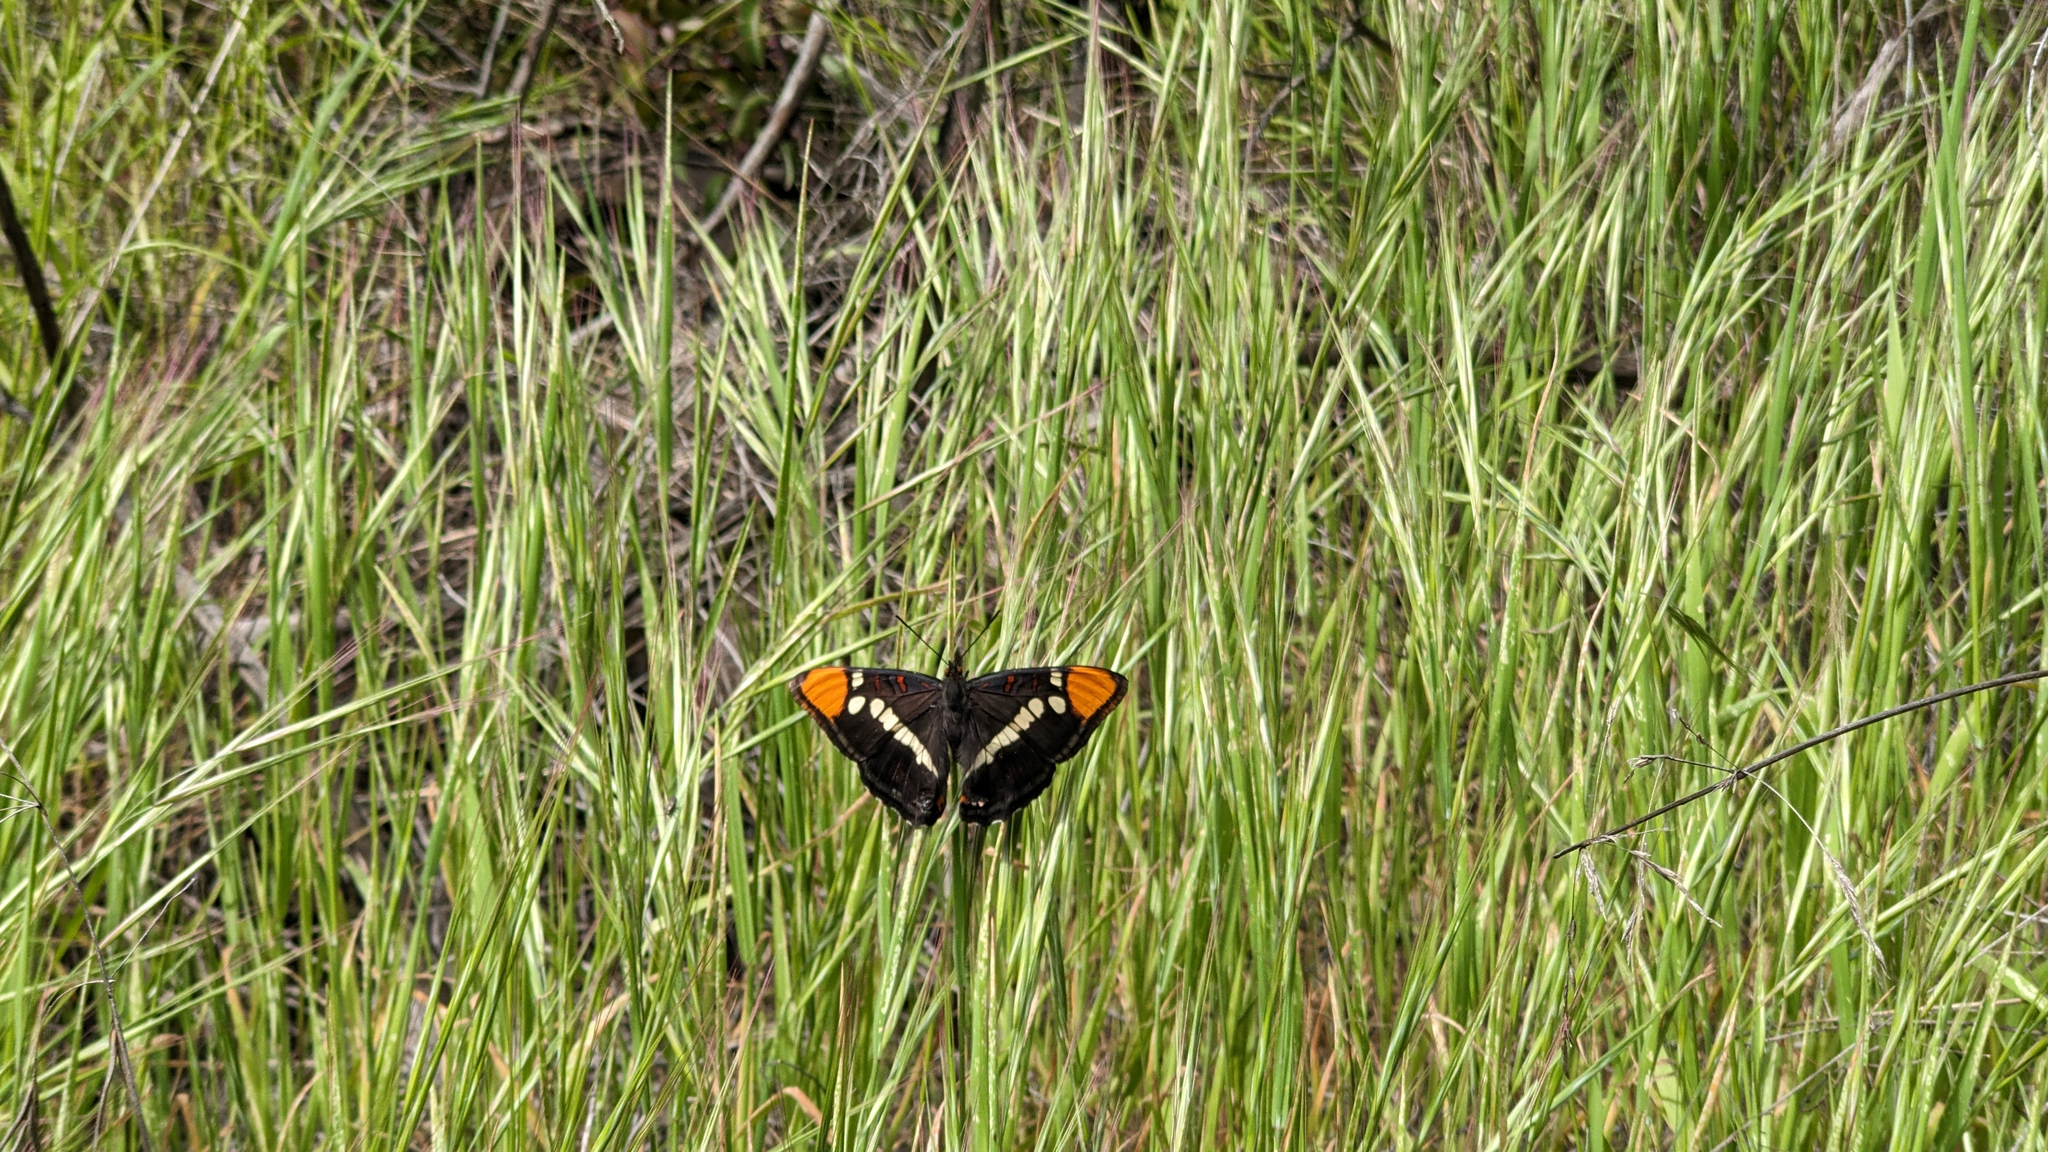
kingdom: Animalia
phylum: Arthropoda
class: Insecta
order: Lepidoptera
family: Nymphalidae
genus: Limenitis
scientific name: Limenitis bredowii
